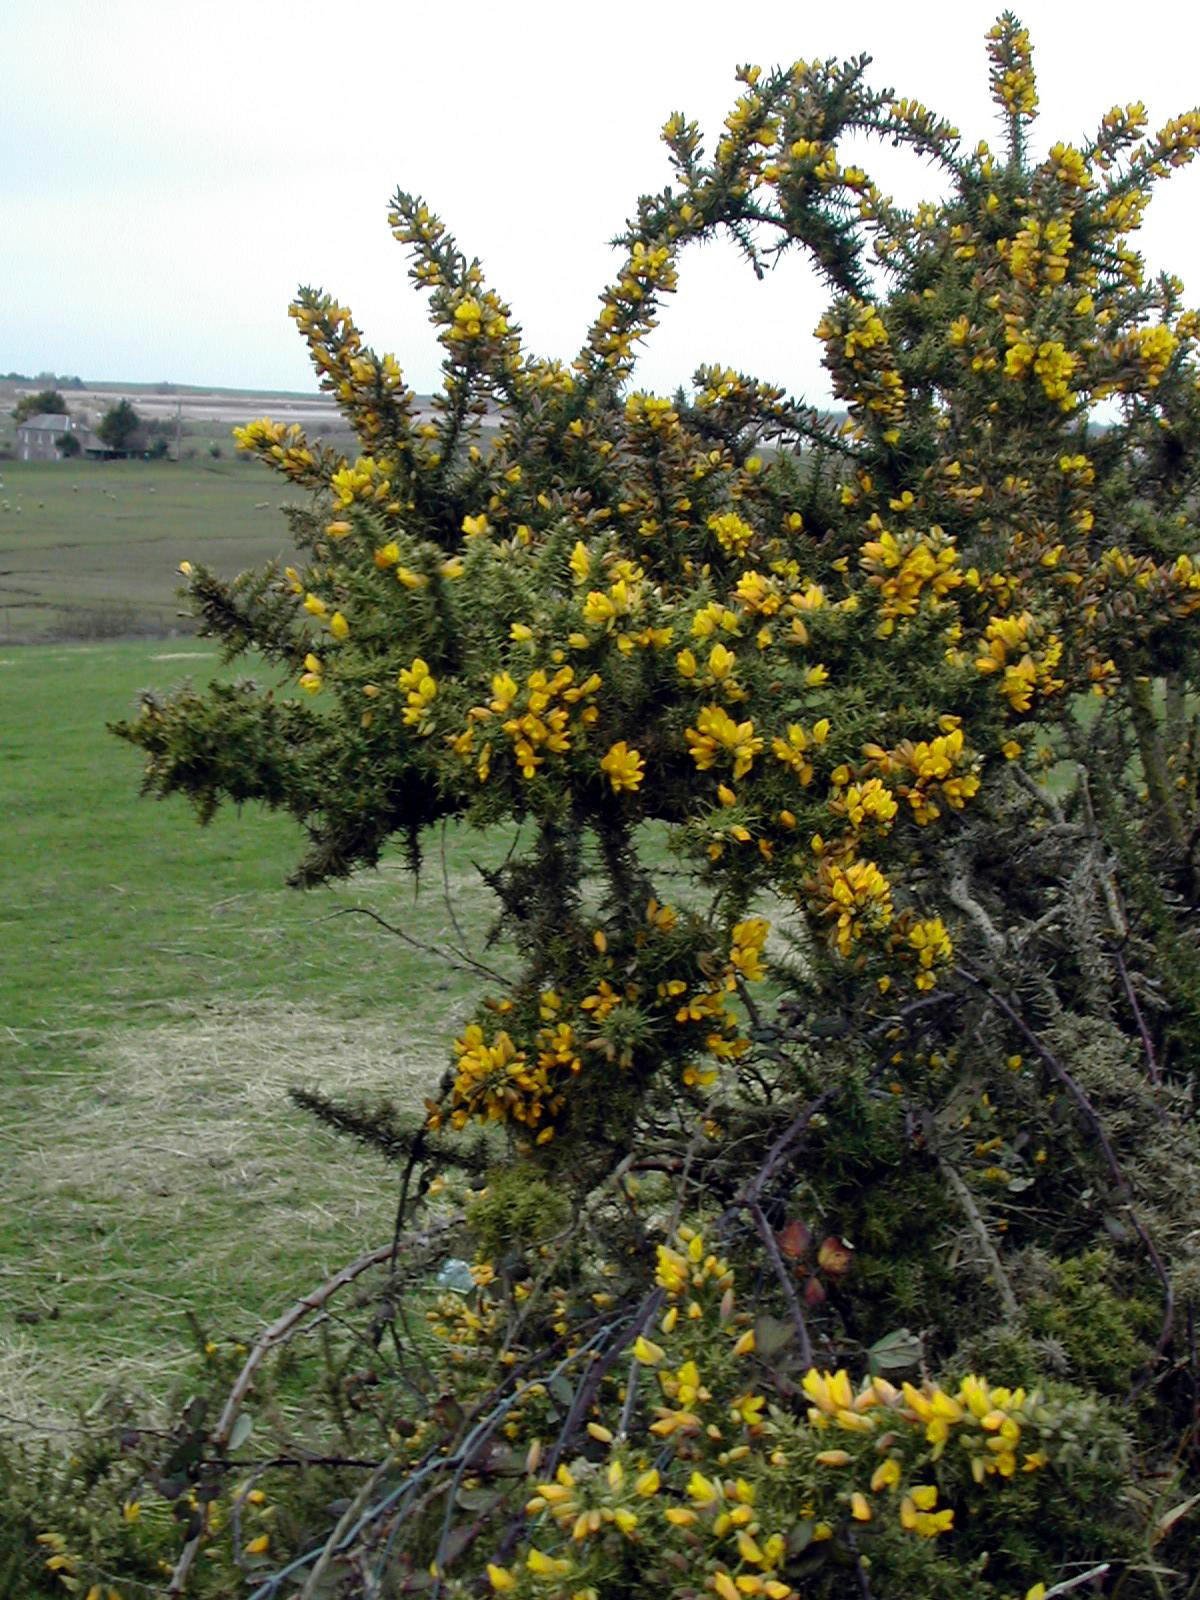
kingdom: Plantae
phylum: Tracheophyta
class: Magnoliopsida
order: Fabales
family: Fabaceae
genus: Ulex
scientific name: Ulex europaeus
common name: Common gorse
